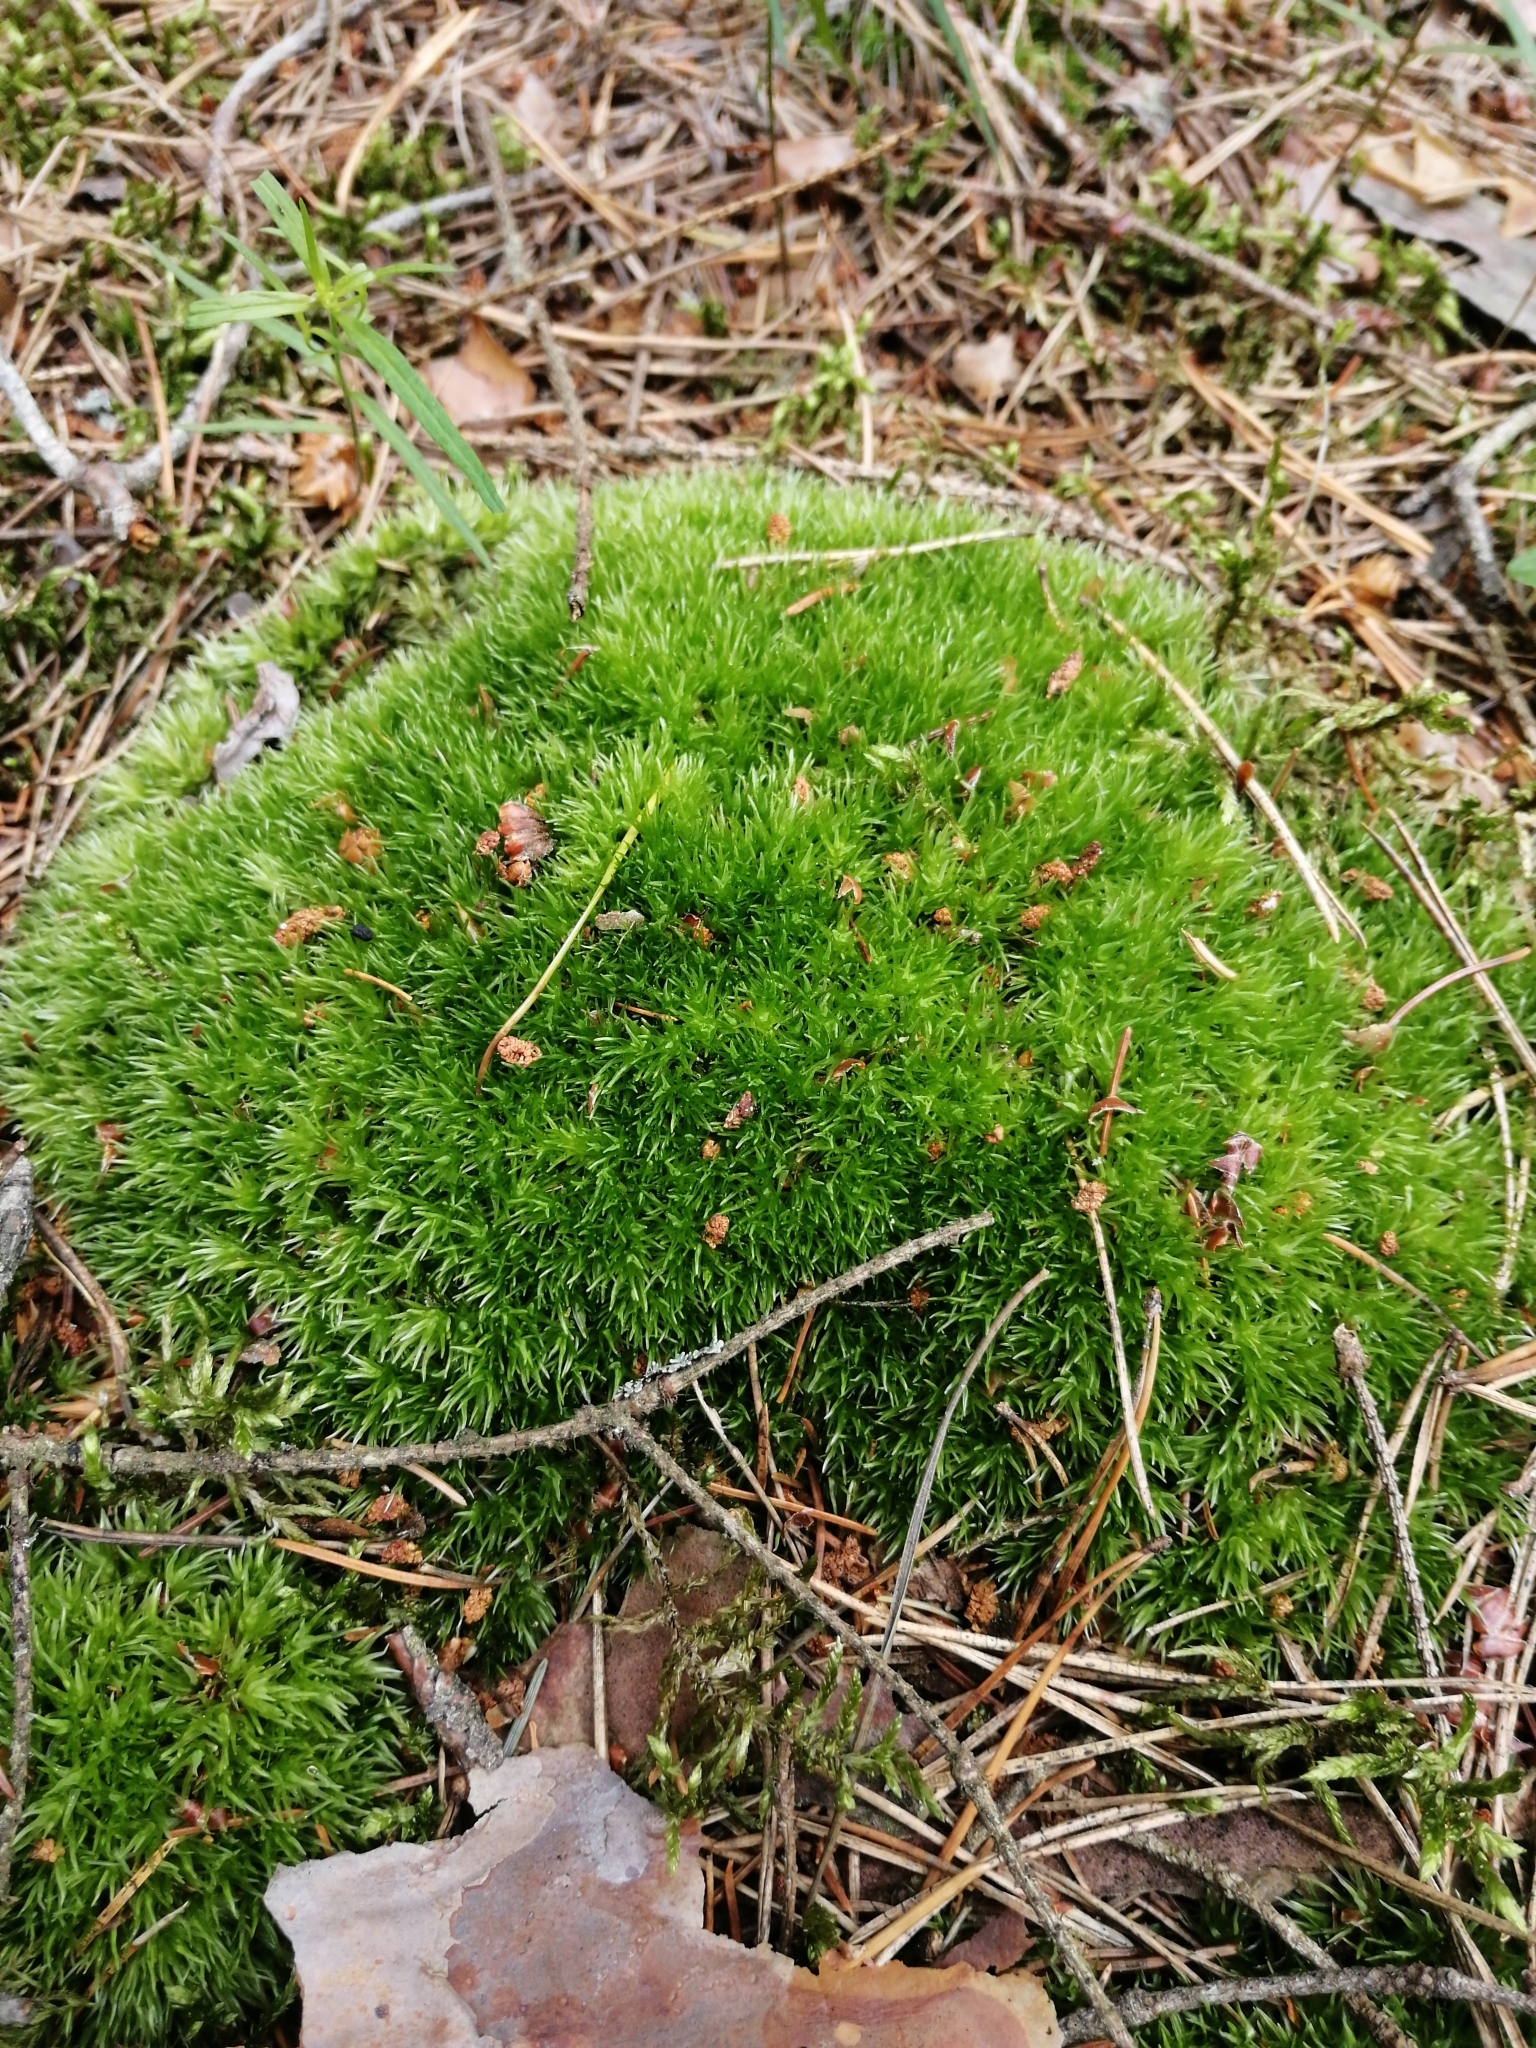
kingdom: Plantae
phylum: Bryophyta
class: Bryopsida
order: Dicranales
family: Leucobryaceae
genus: Leucobryum
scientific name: Leucobryum glaucum
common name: Large white-moss
